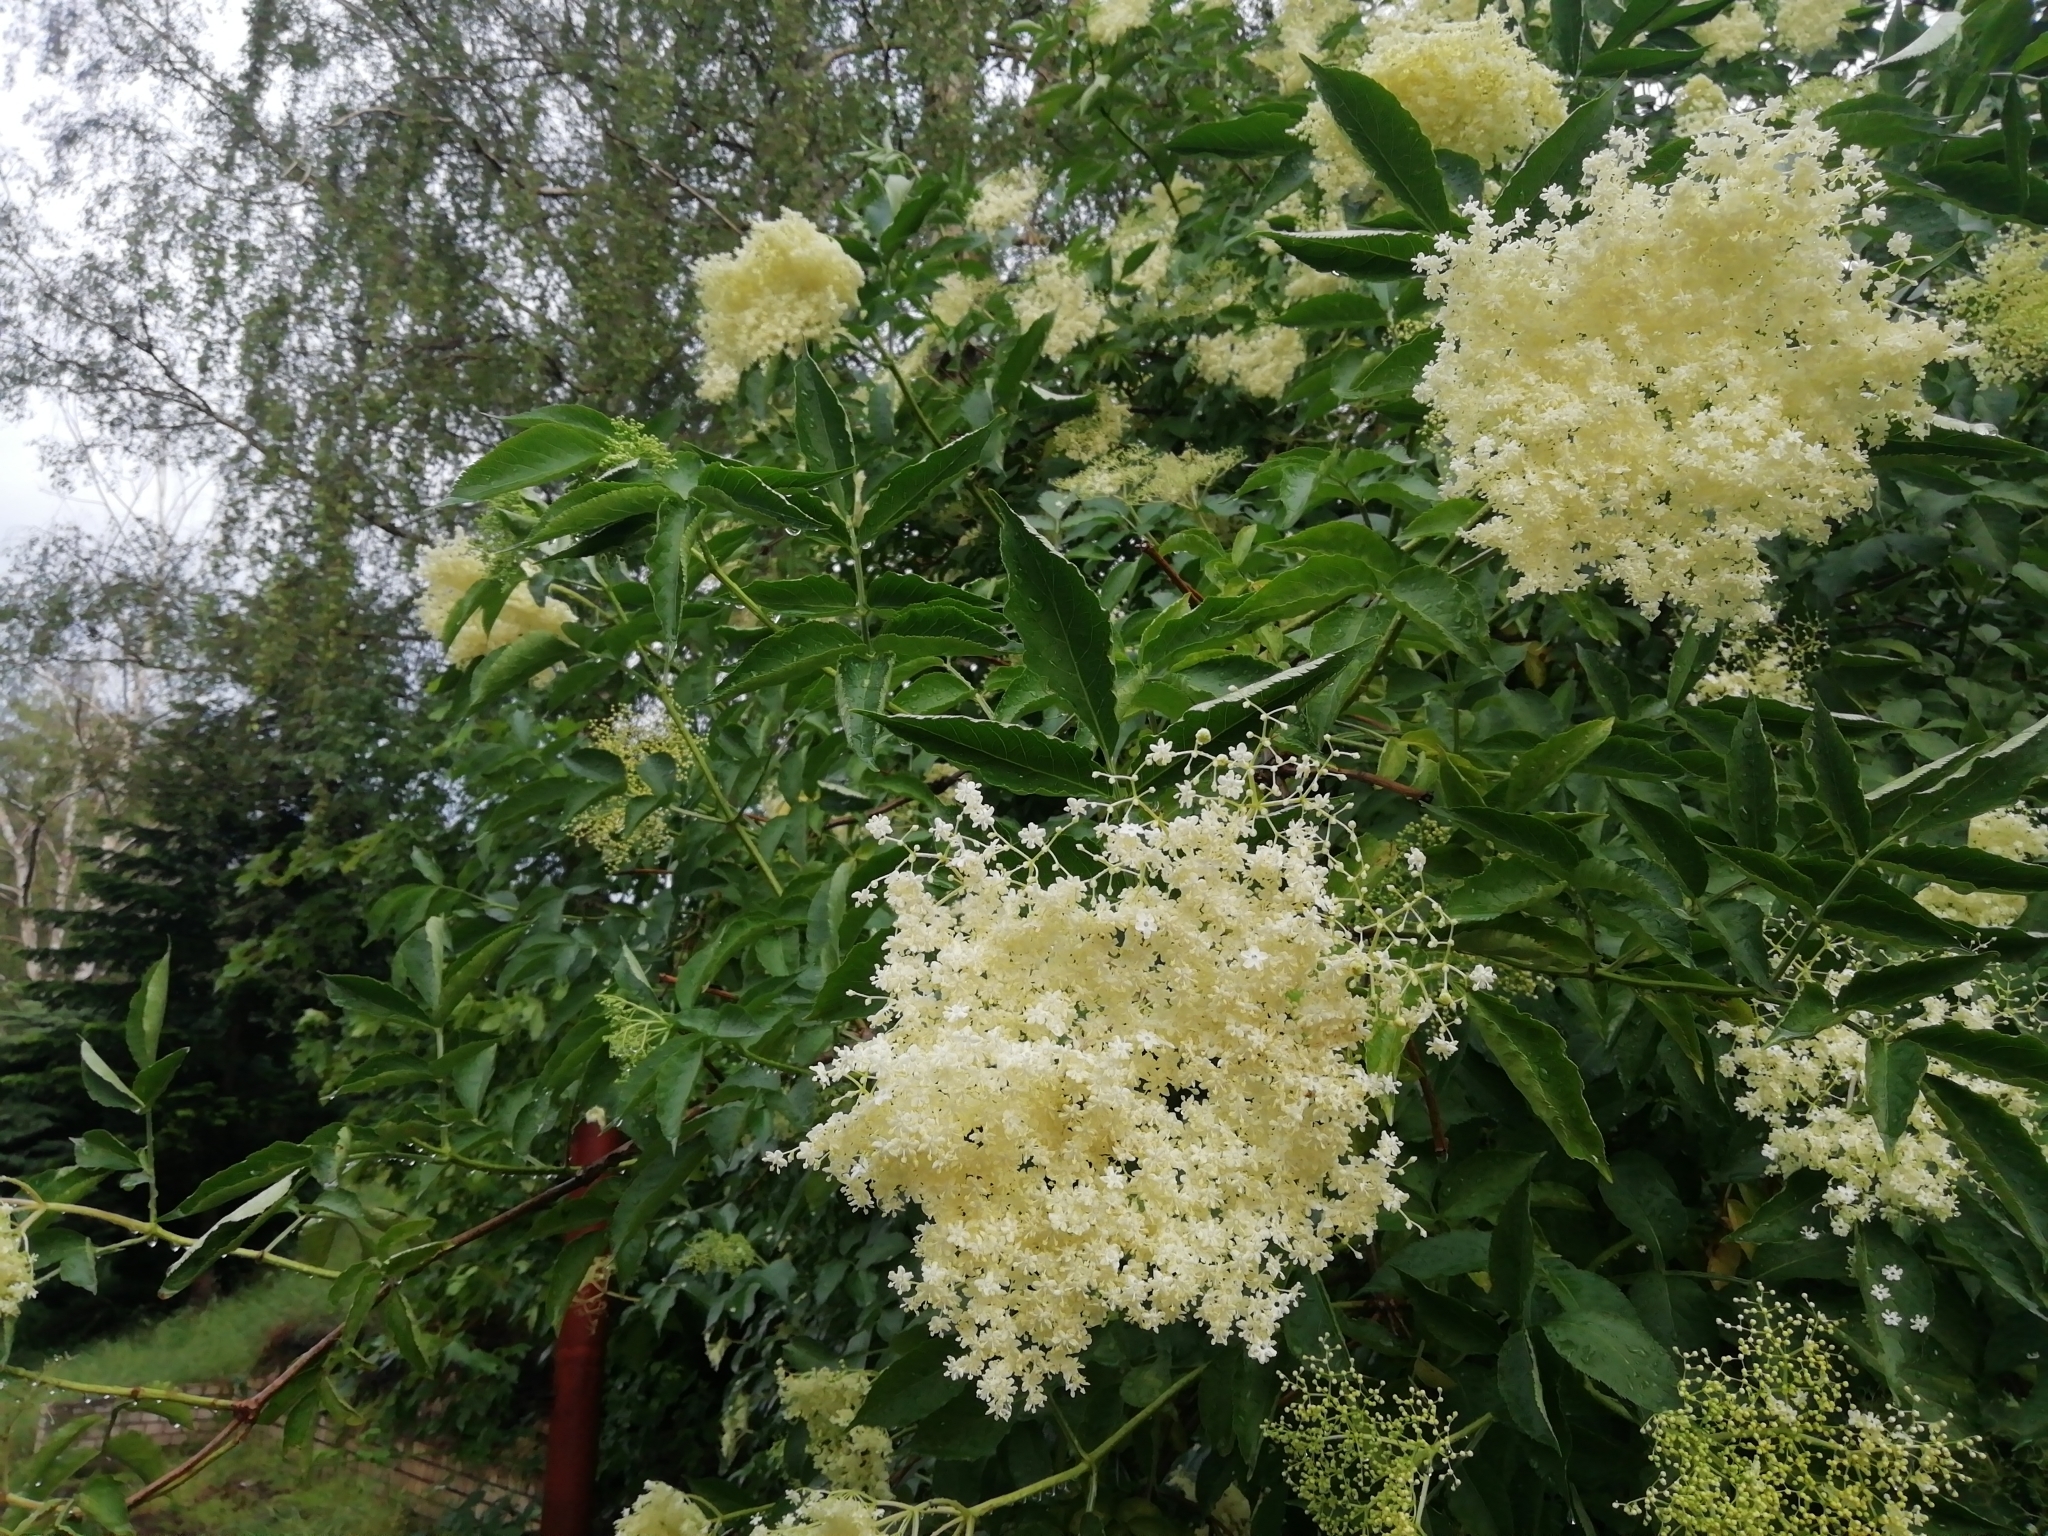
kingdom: Plantae
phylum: Tracheophyta
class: Magnoliopsida
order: Dipsacales
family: Viburnaceae
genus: Sambucus
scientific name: Sambucus nigra
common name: Elder
